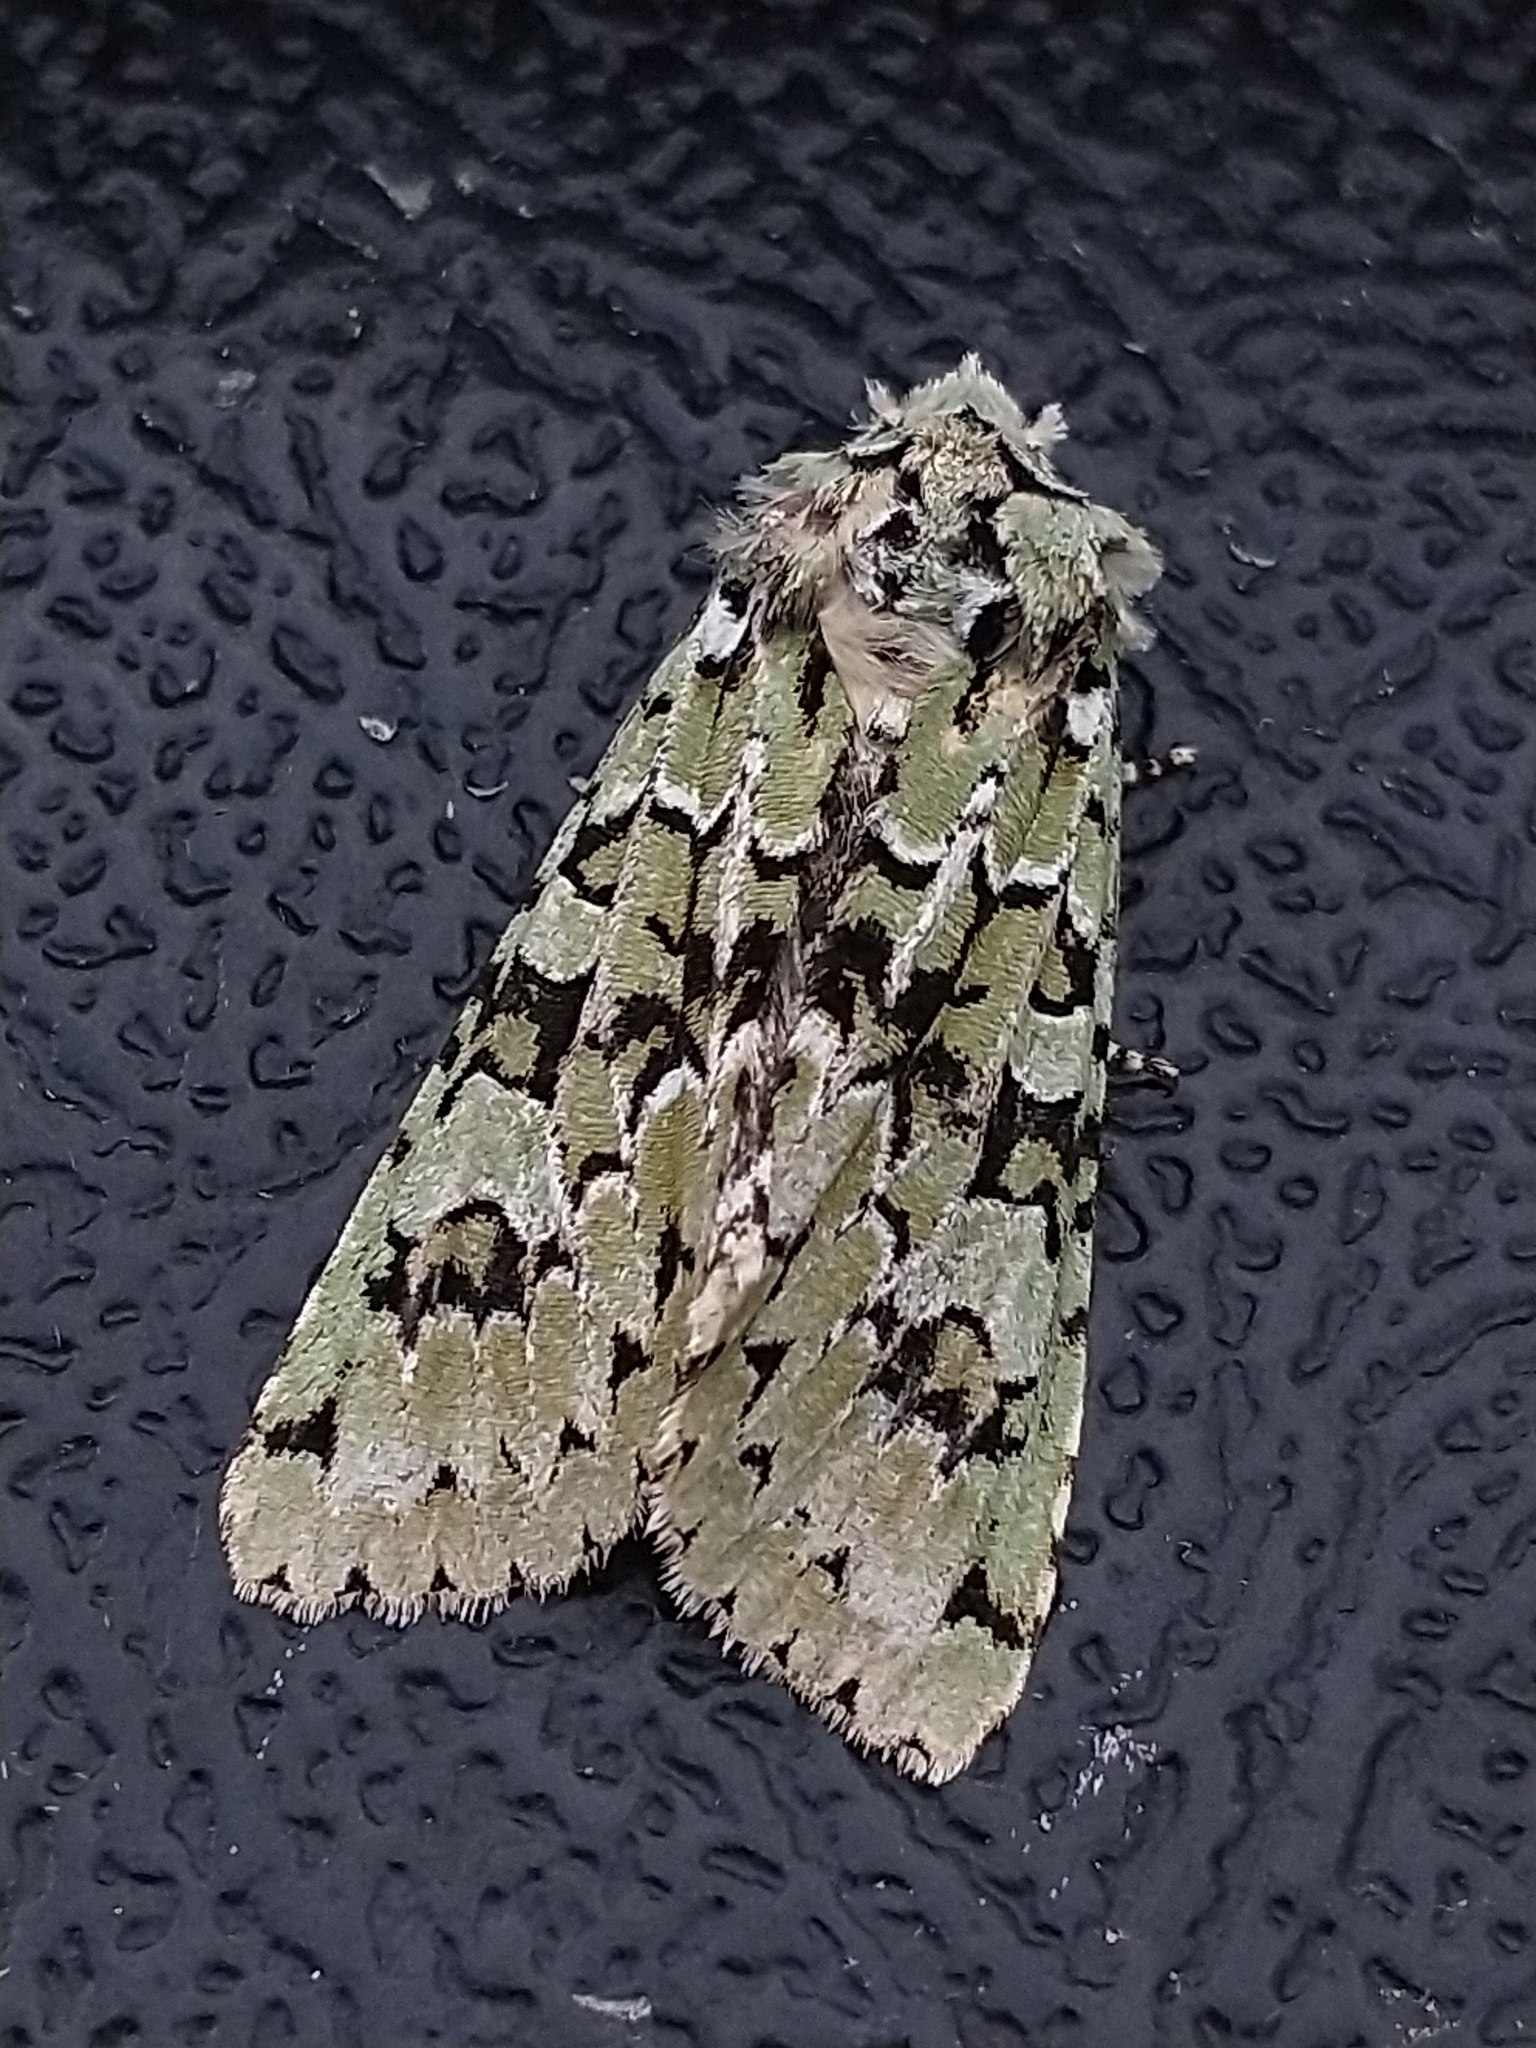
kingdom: Animalia
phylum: Arthropoda
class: Insecta
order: Lepidoptera
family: Noctuidae
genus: Griposia
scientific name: Griposia aprilina
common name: Merveille du jour
